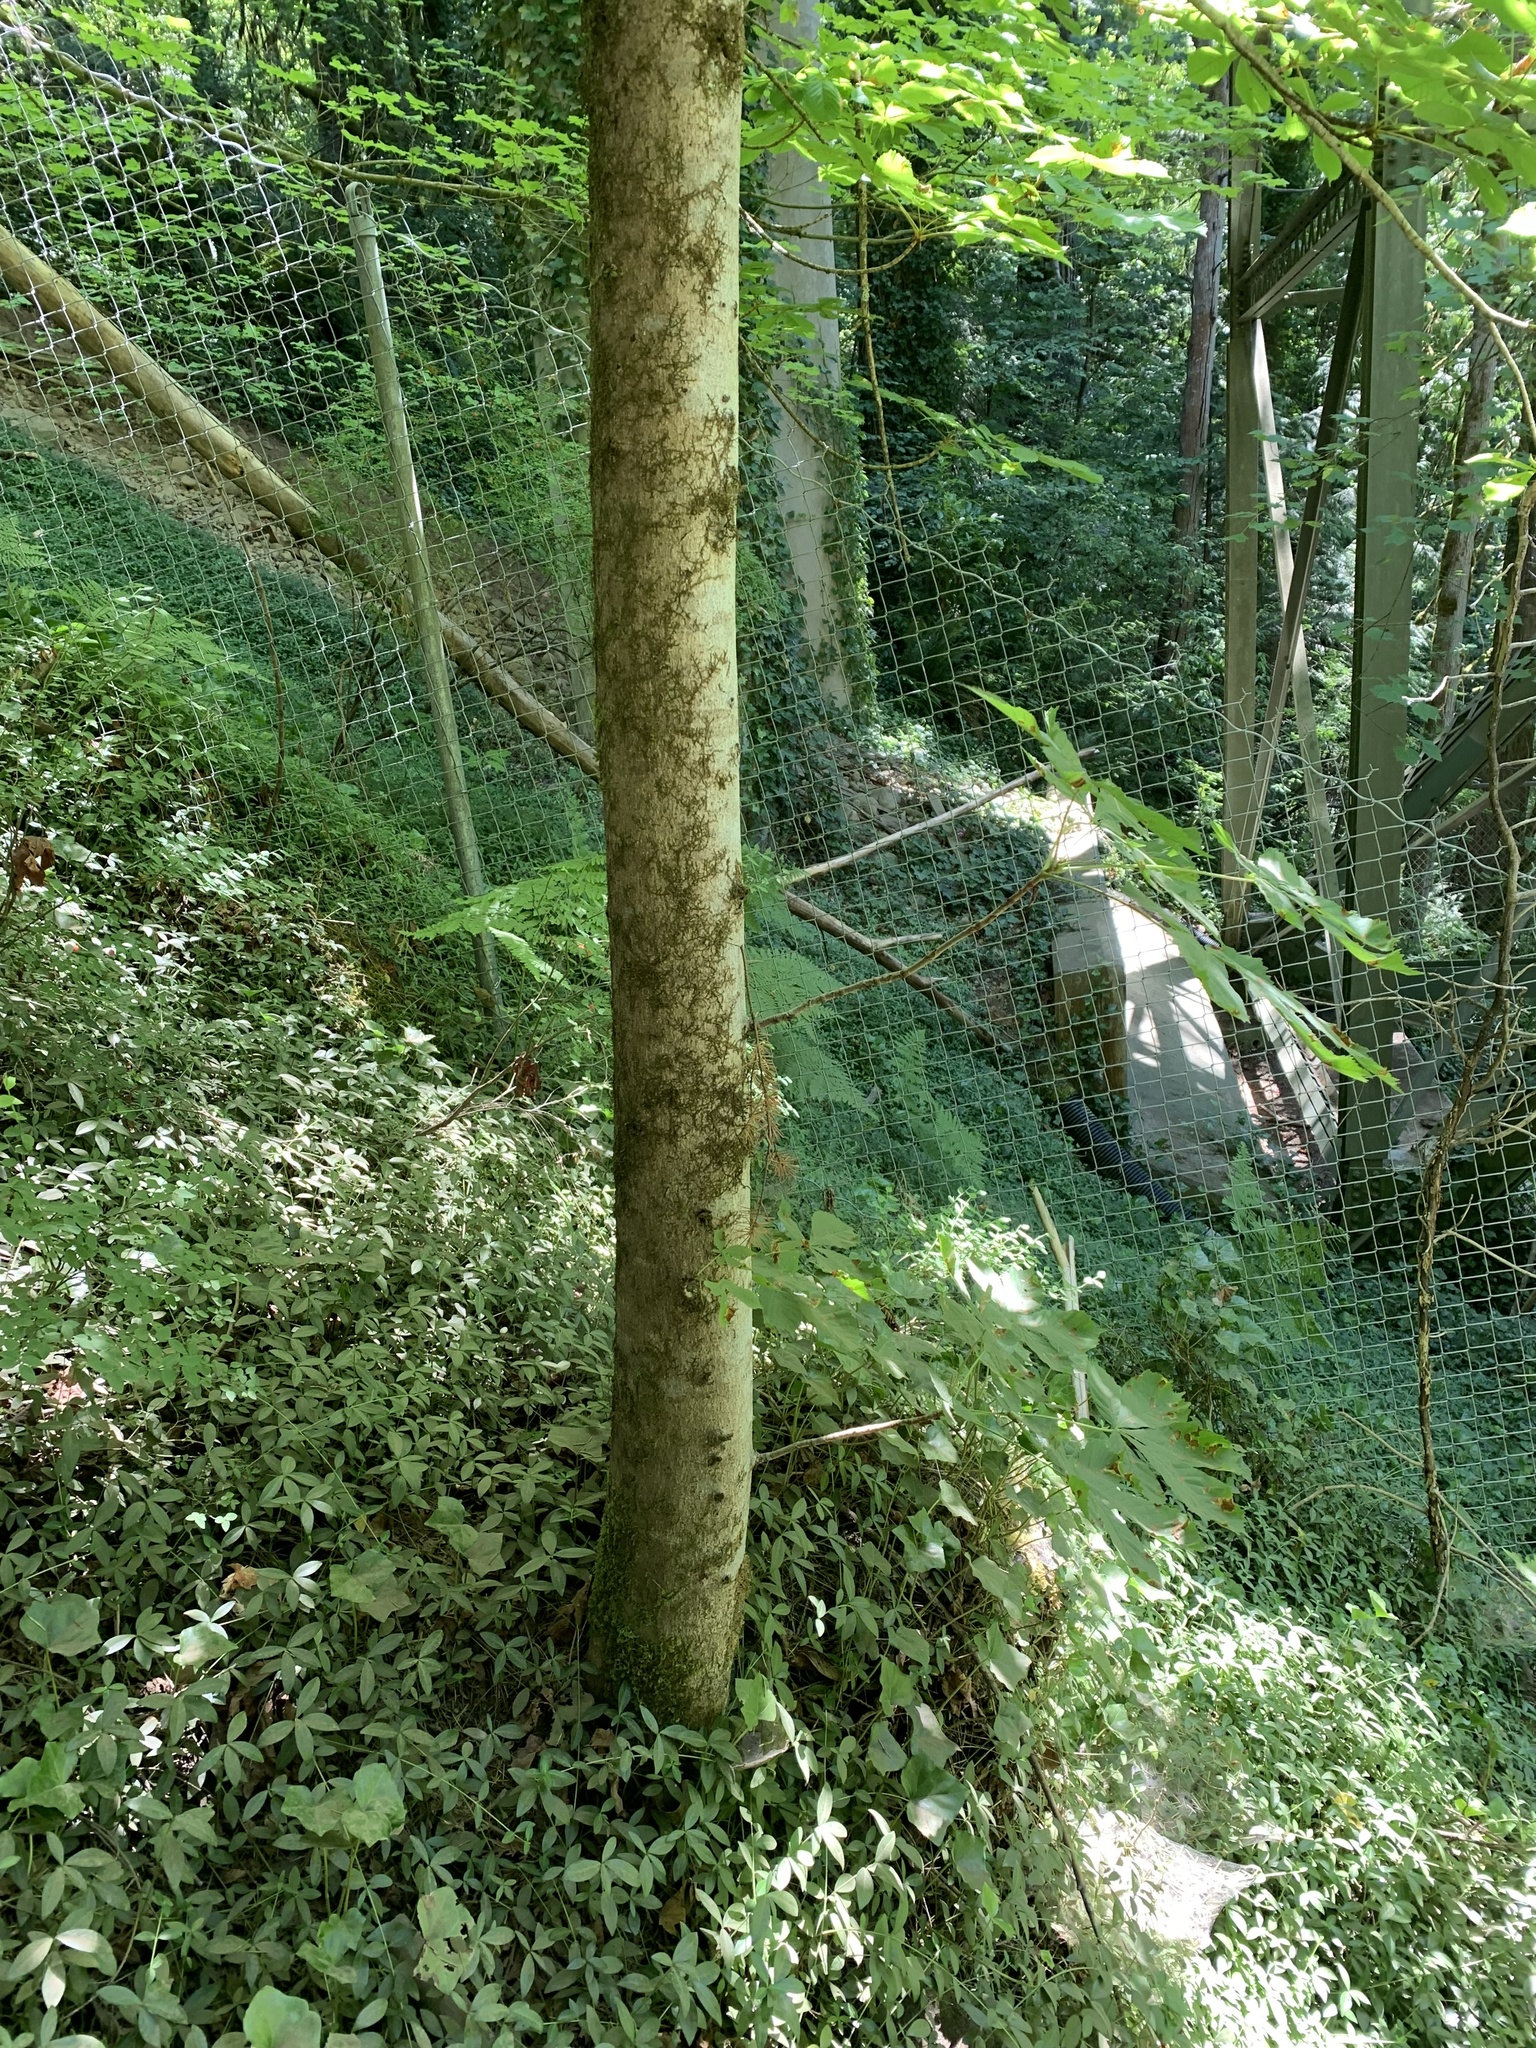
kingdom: Plantae
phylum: Tracheophyta
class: Magnoliopsida
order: Sapindales
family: Sapindaceae
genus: Aesculus
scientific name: Aesculus hippocastanum
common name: Horse-chestnut
